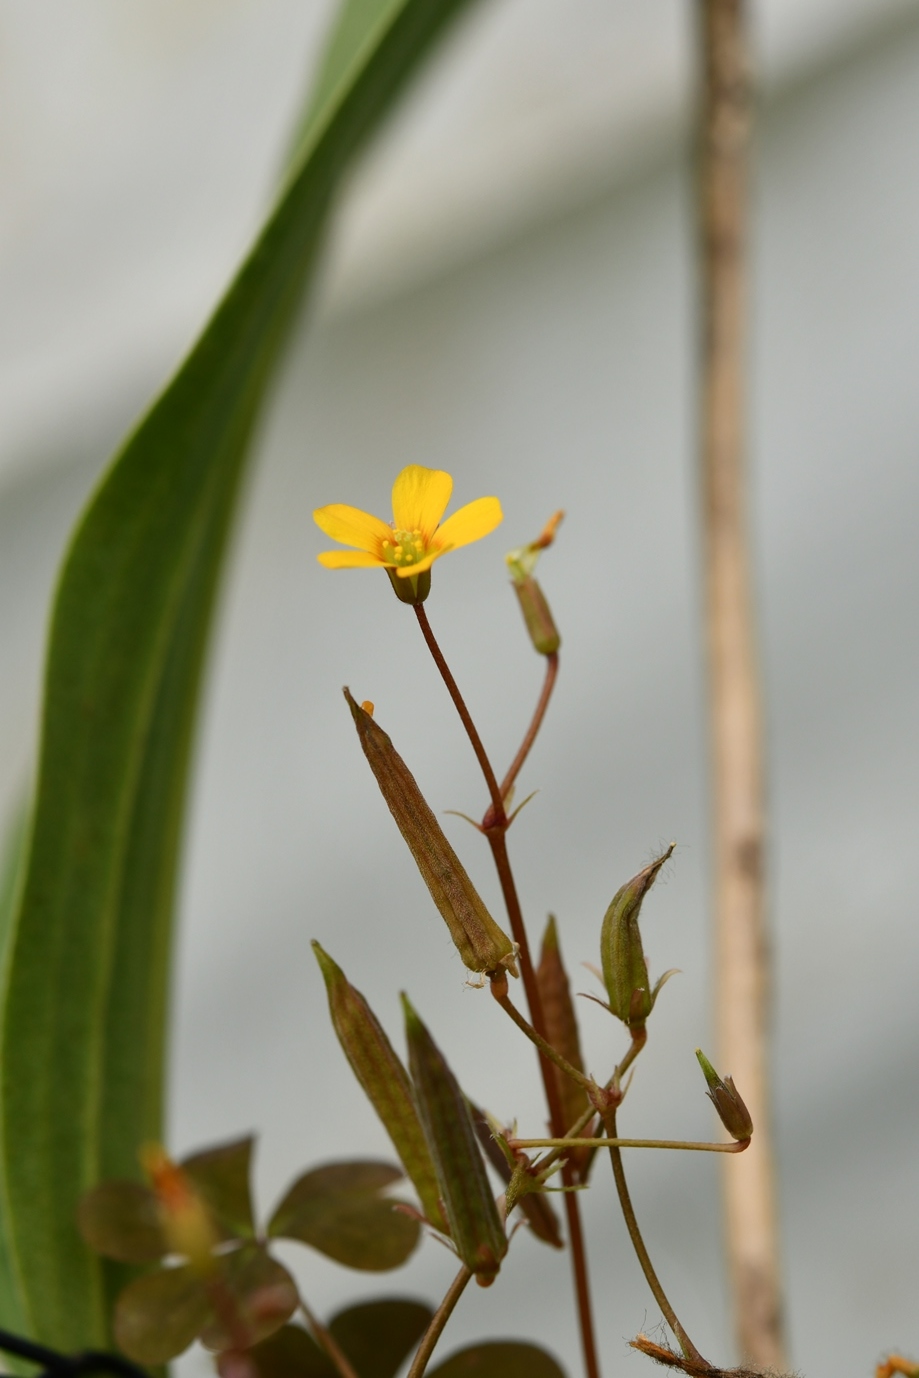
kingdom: Plantae
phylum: Tracheophyta
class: Magnoliopsida
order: Oxalidales
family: Oxalidaceae
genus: Oxalis
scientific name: Oxalis corniculata
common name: Procumbent yellow-sorrel
